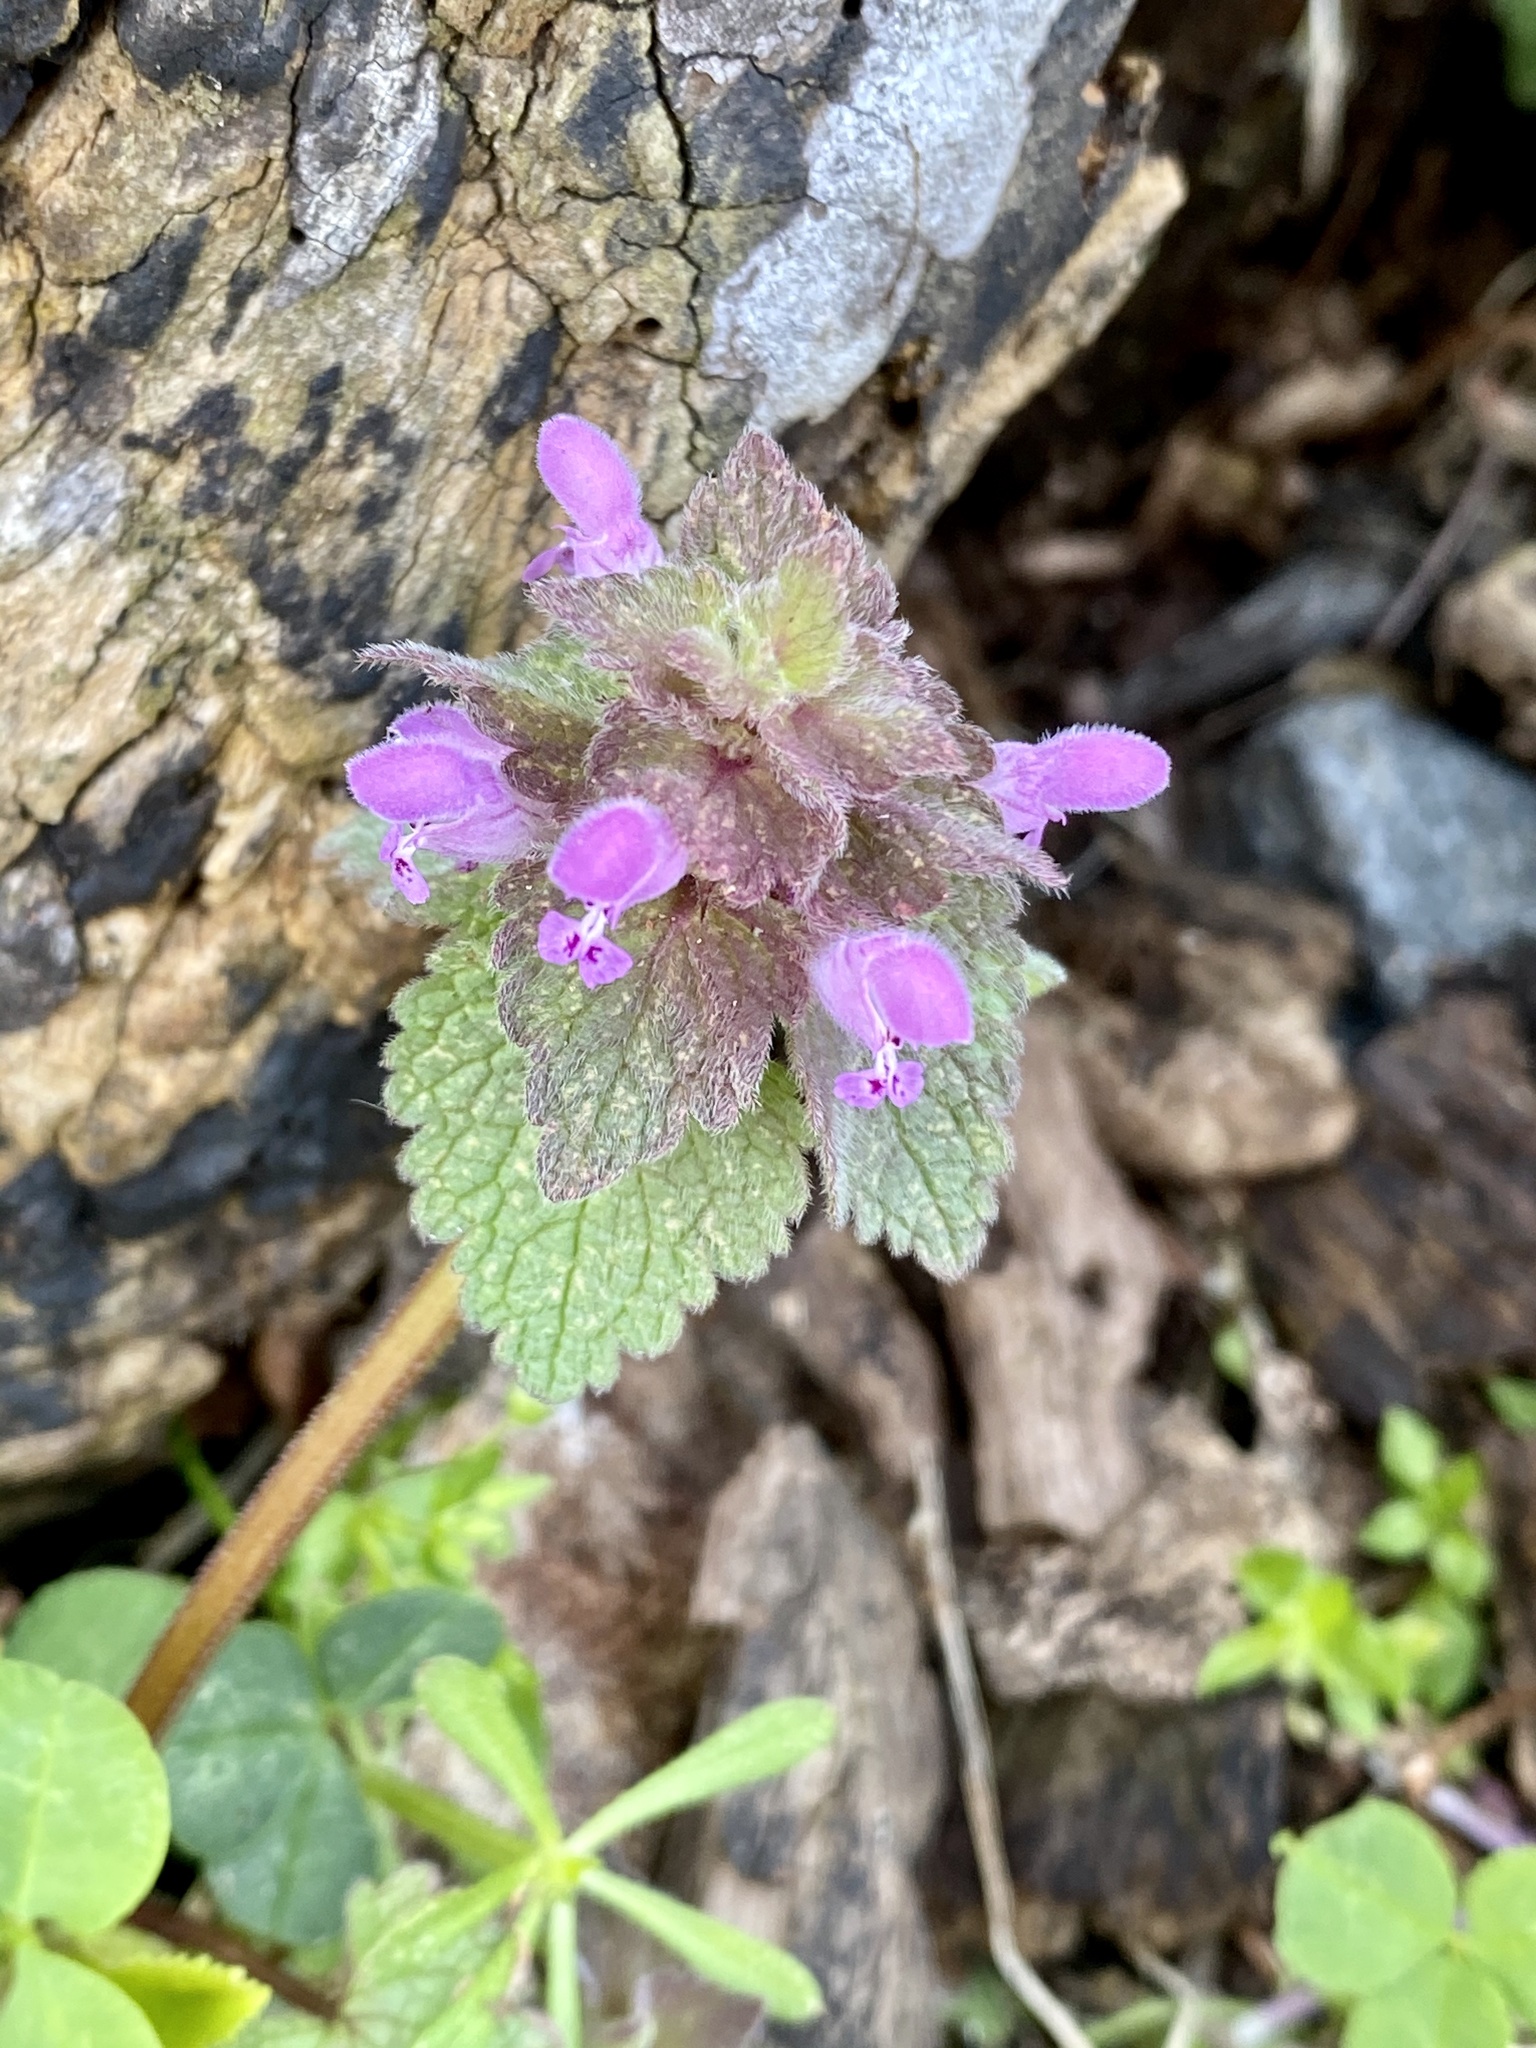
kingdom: Plantae
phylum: Tracheophyta
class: Magnoliopsida
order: Lamiales
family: Lamiaceae
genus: Lamium
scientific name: Lamium purpureum
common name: Red dead-nettle
